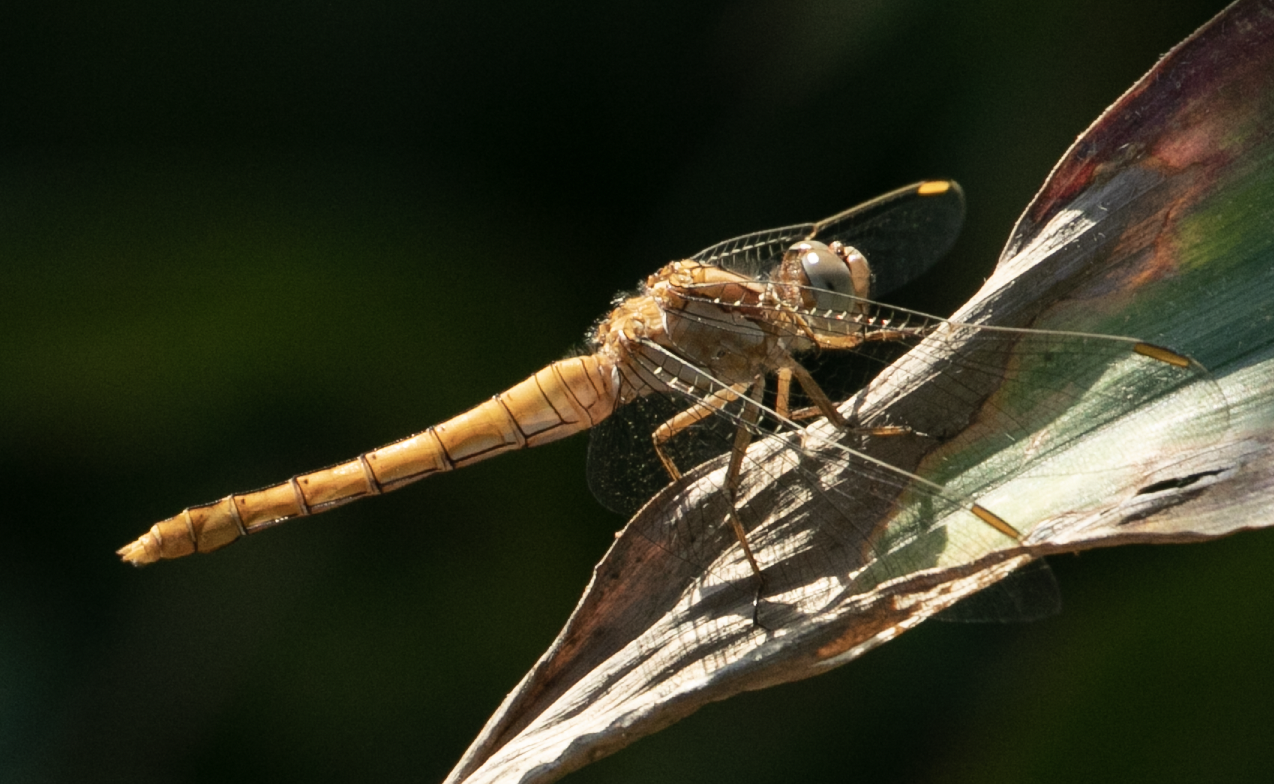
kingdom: Animalia
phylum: Arthropoda
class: Insecta
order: Odonata
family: Libellulidae
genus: Orthetrum
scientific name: Orthetrum brunneum
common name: Southern skimmer
